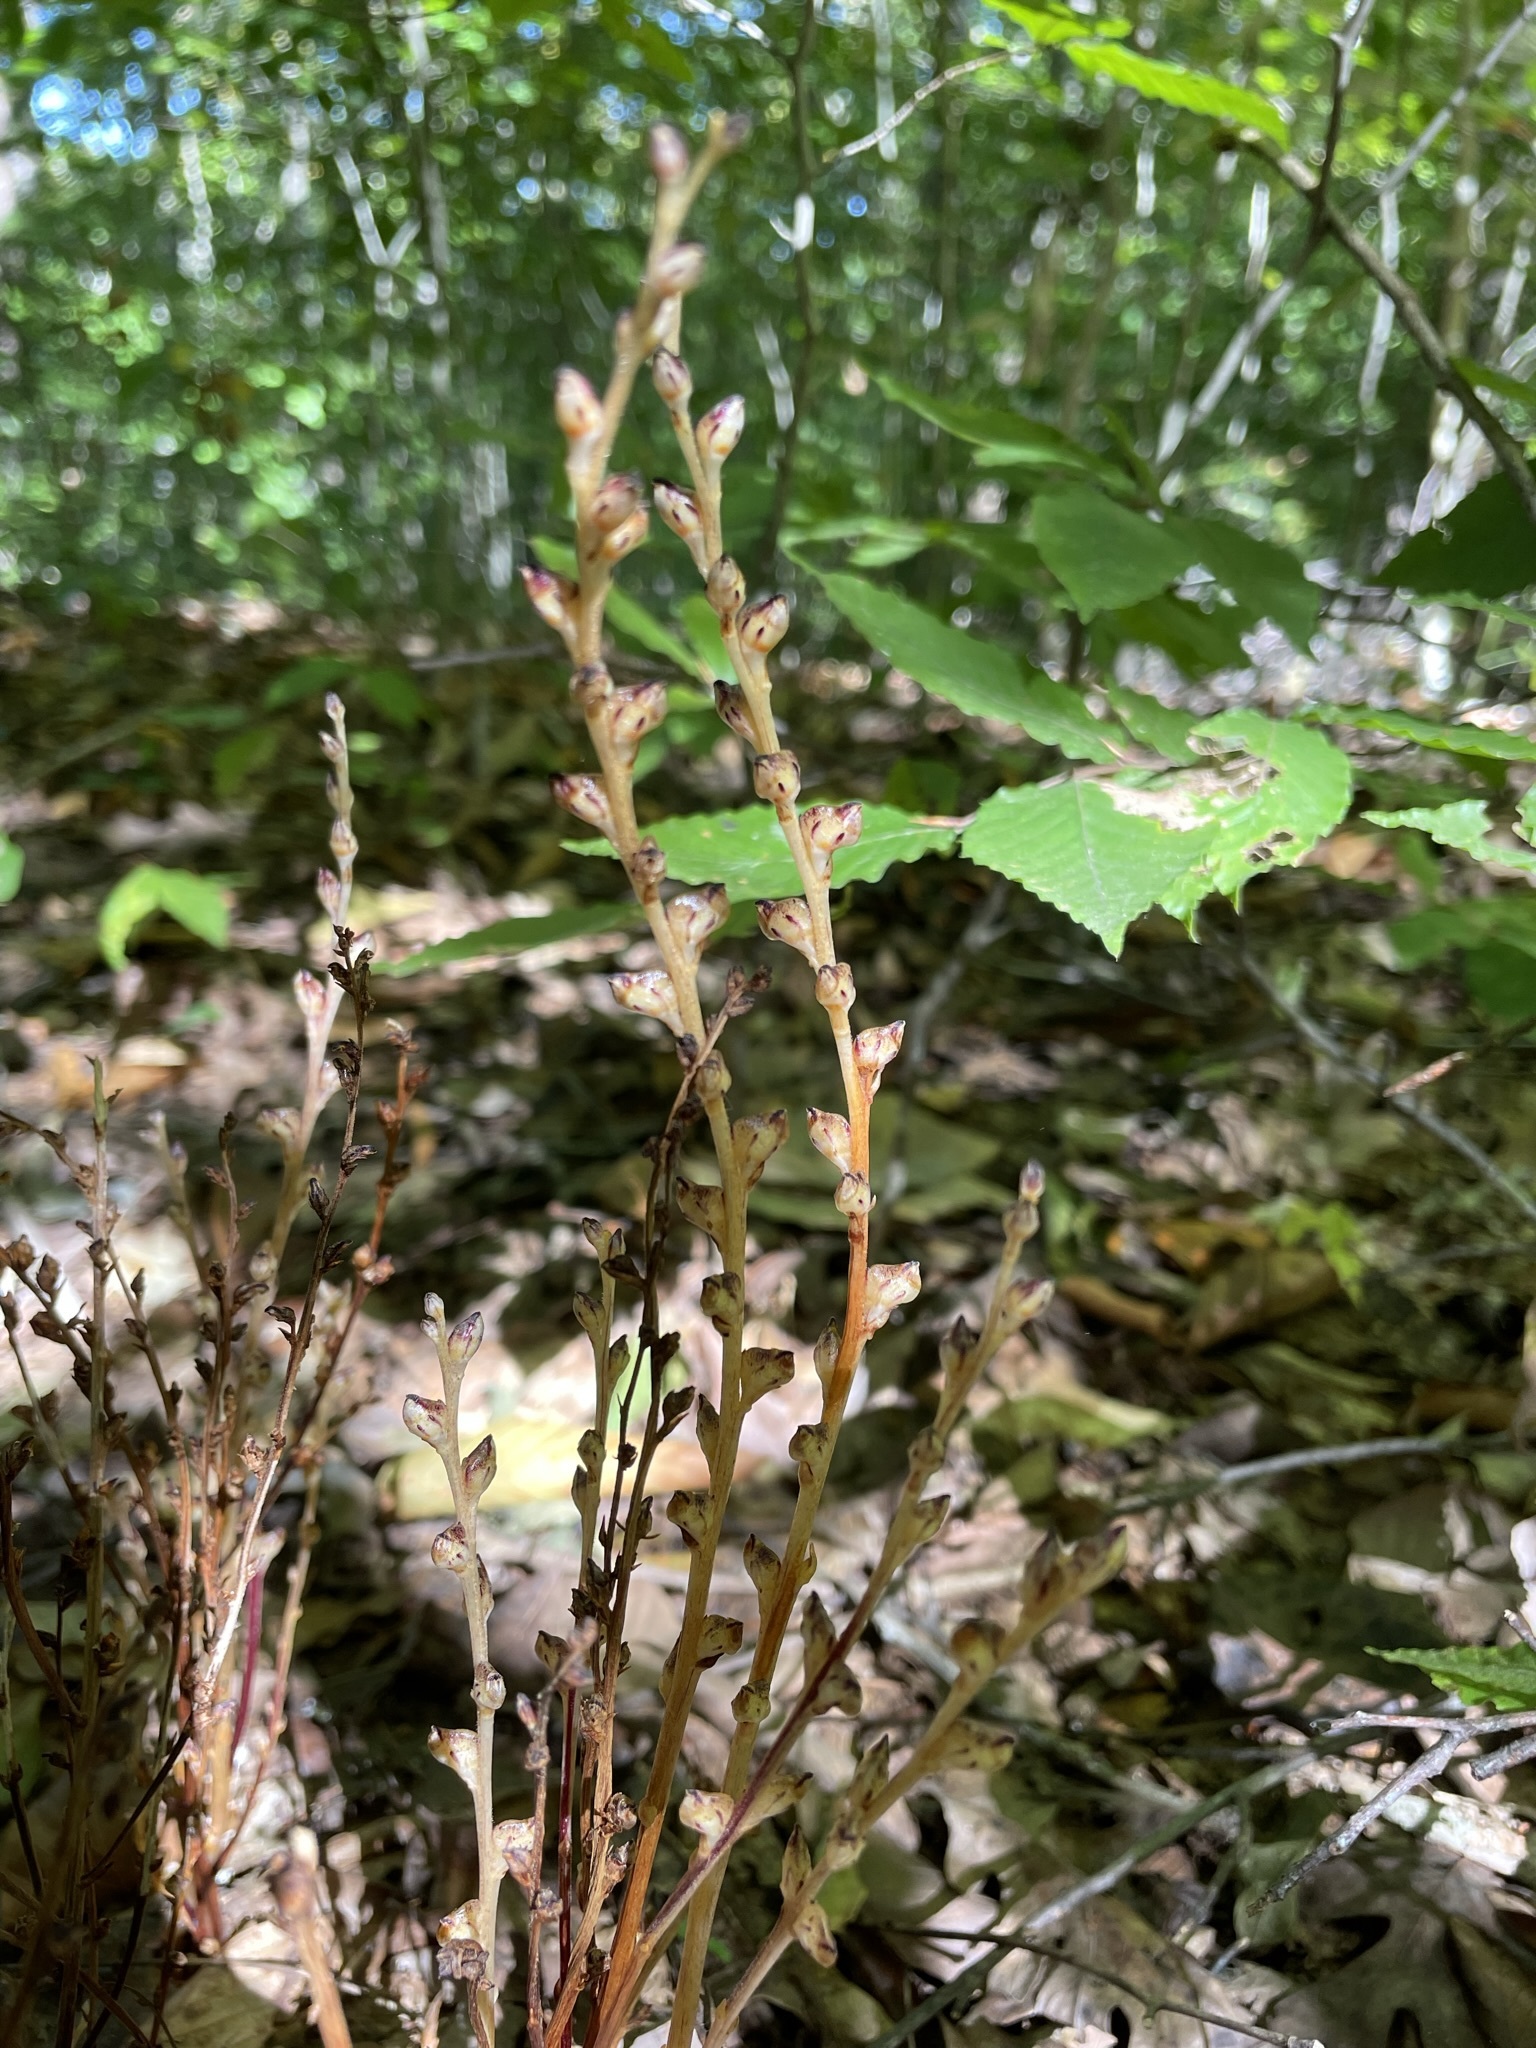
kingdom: Plantae
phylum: Tracheophyta
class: Magnoliopsida
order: Lamiales
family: Orobanchaceae
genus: Epifagus
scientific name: Epifagus virginiana
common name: Beechdrops
